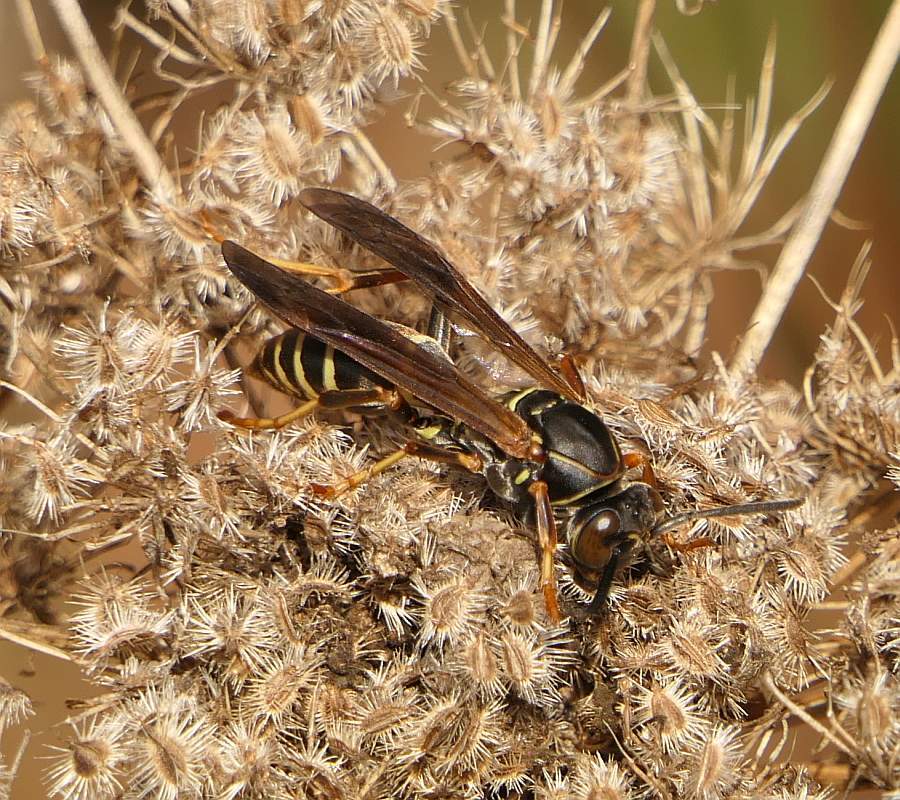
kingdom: Animalia
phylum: Arthropoda
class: Insecta
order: Hymenoptera
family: Eumenidae
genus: Polistes
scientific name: Polistes fuscatus
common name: Dark paper wasp
